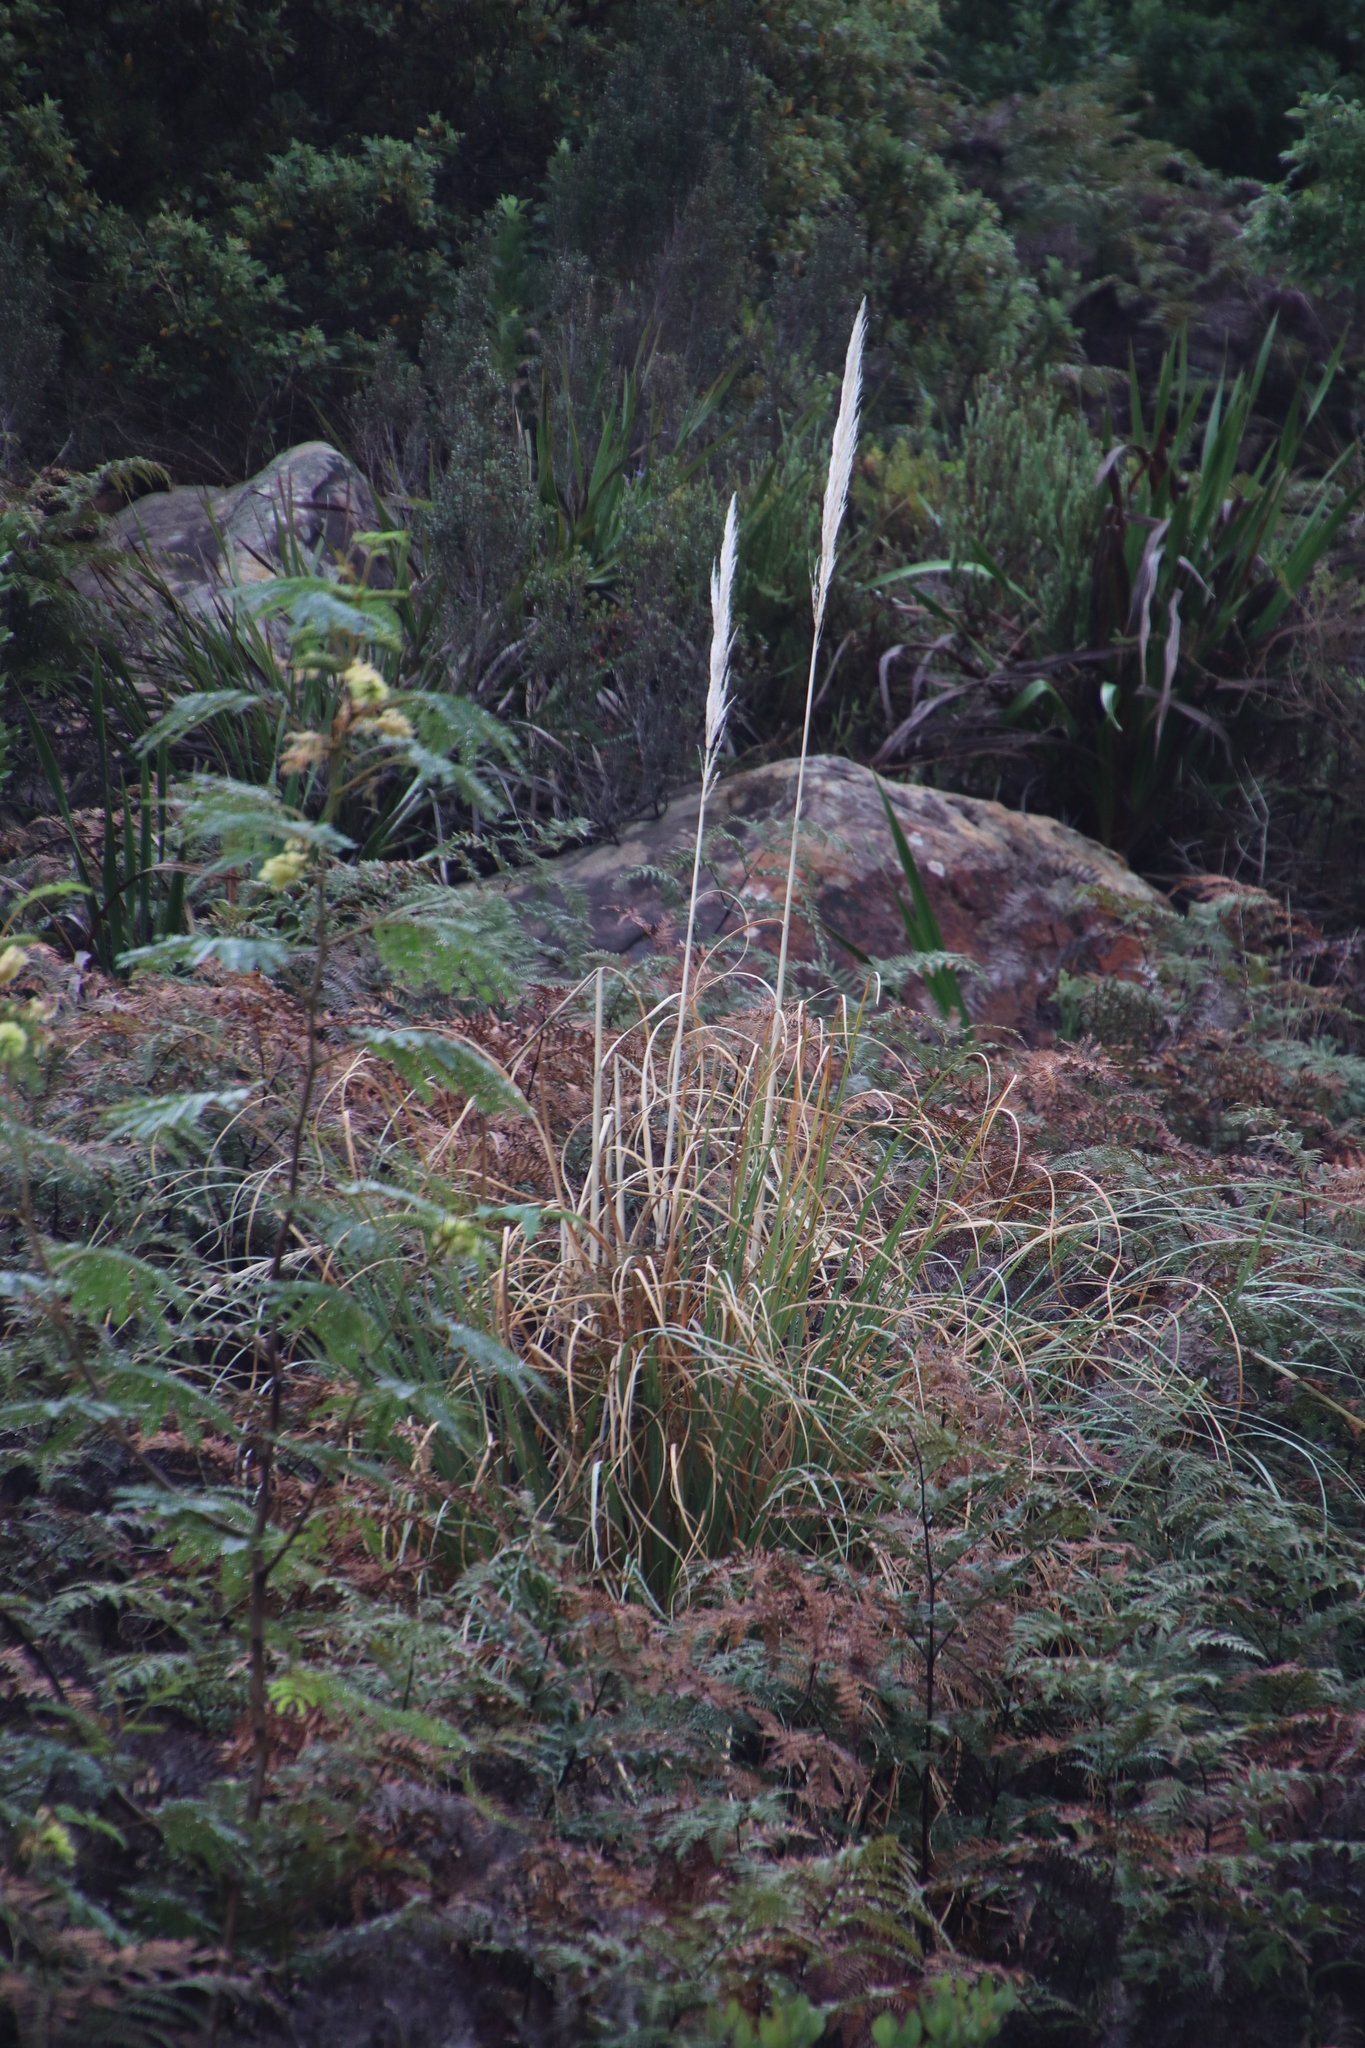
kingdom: Plantae
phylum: Tracheophyta
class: Liliopsida
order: Poales
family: Poaceae
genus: Cortaderia
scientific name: Cortaderia selloana
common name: Uruguayan pampas grass
